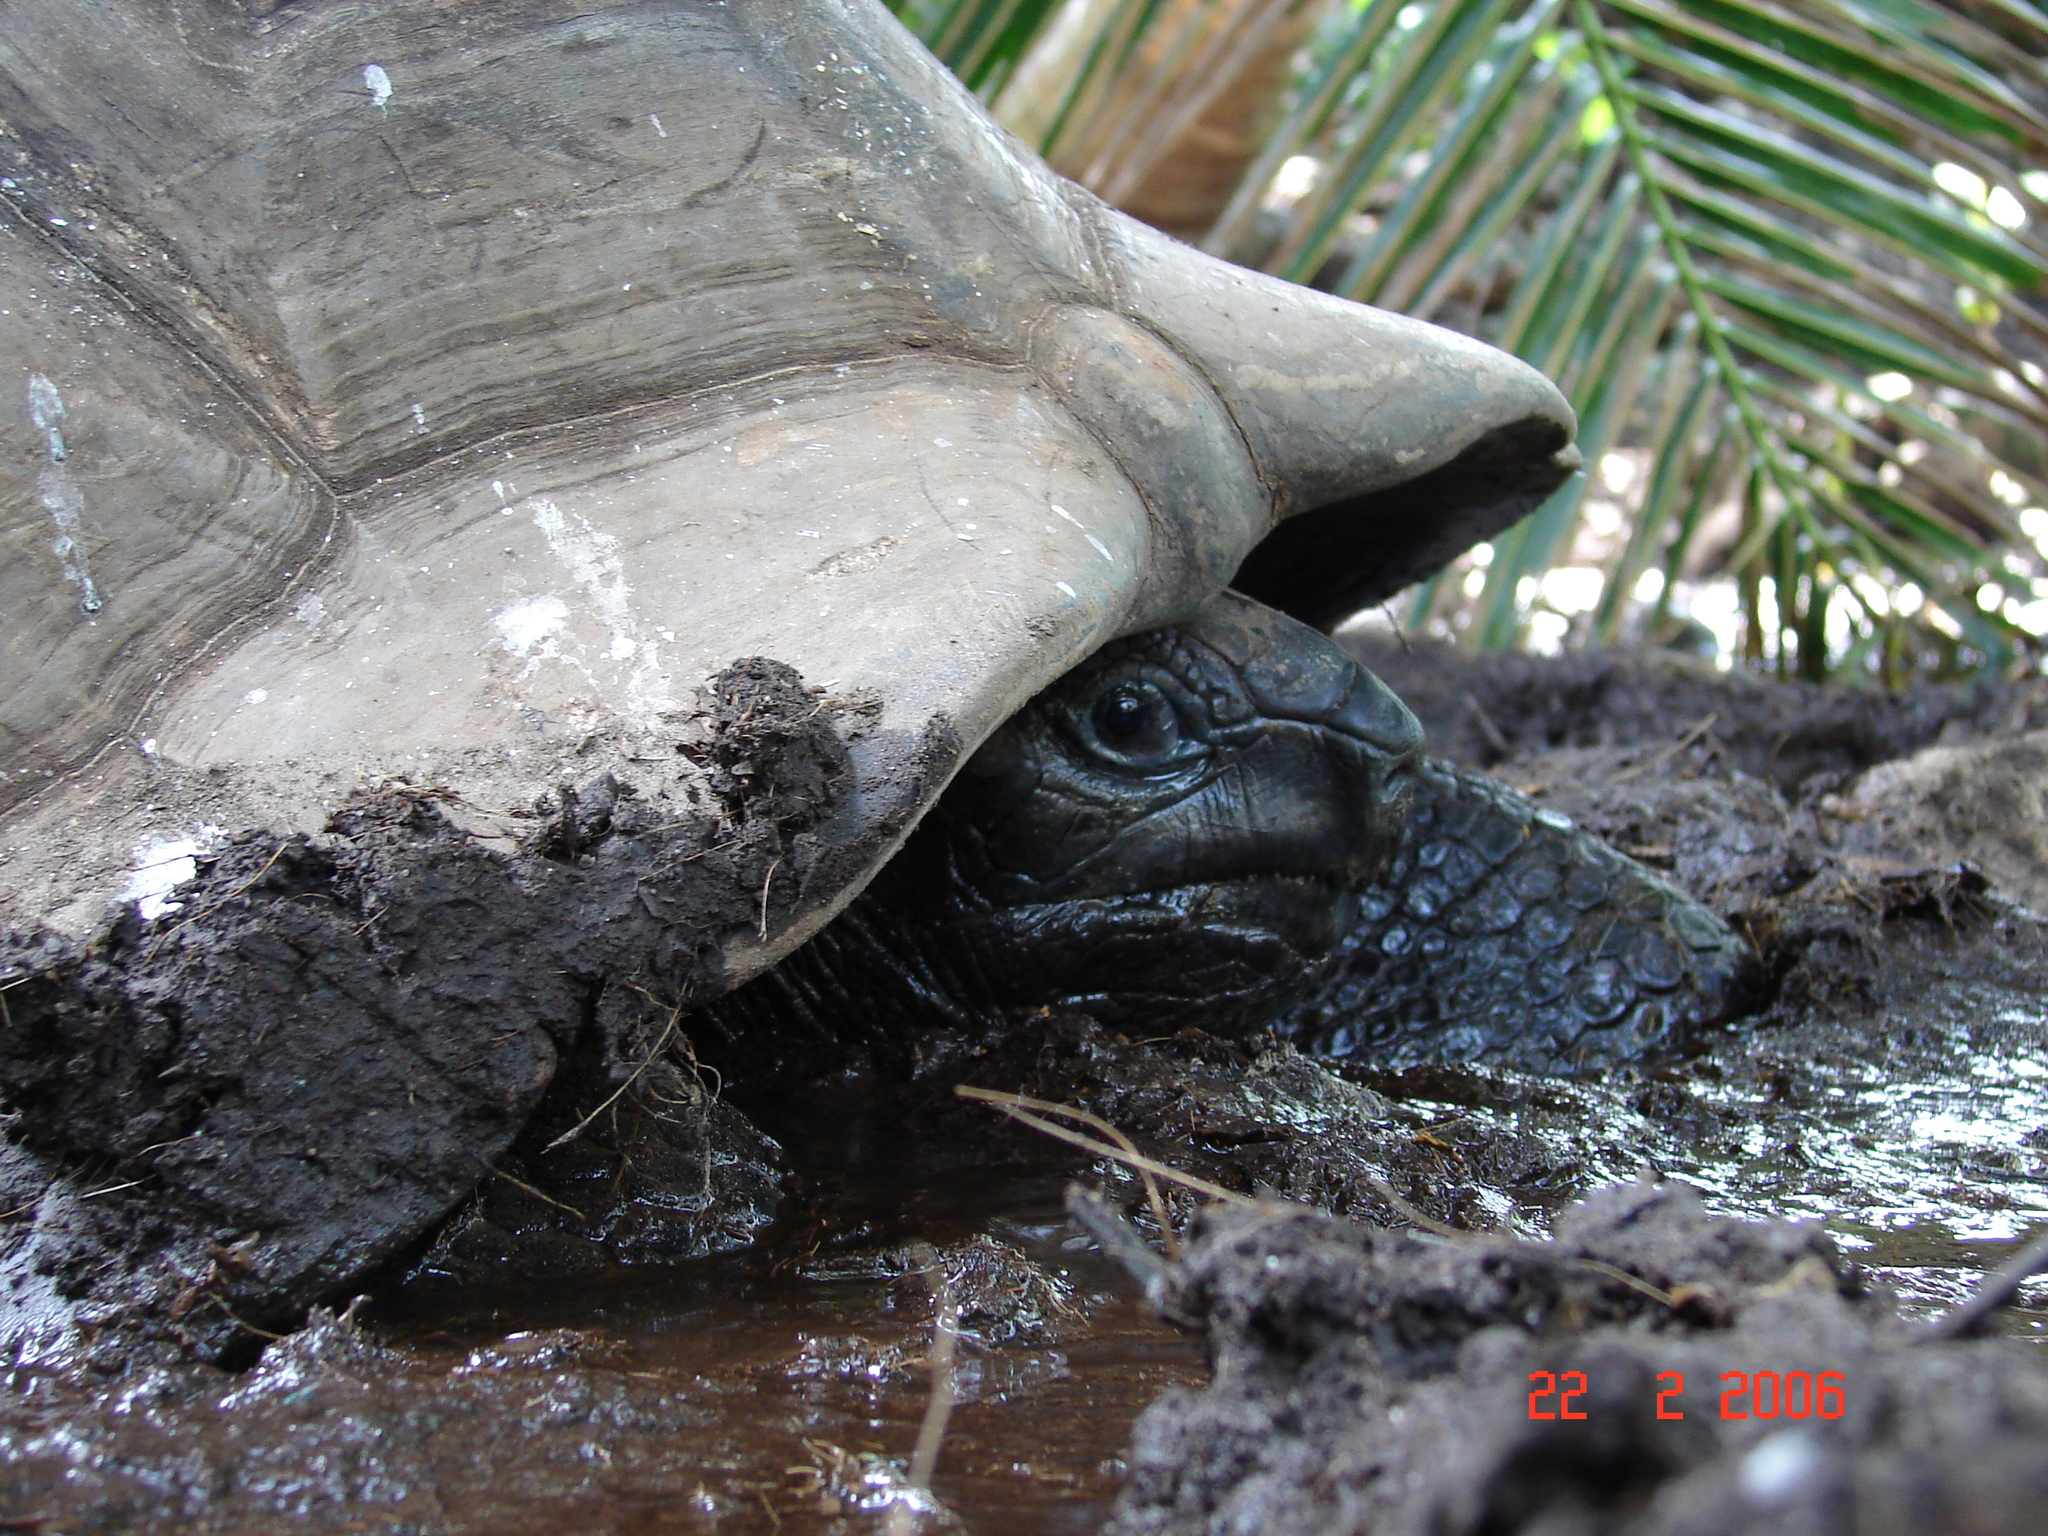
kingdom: Animalia
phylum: Chordata
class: Testudines
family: Testudinidae
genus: Aldabrachelys
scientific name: Aldabrachelys gigantea
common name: Aldabra giant tortoise
